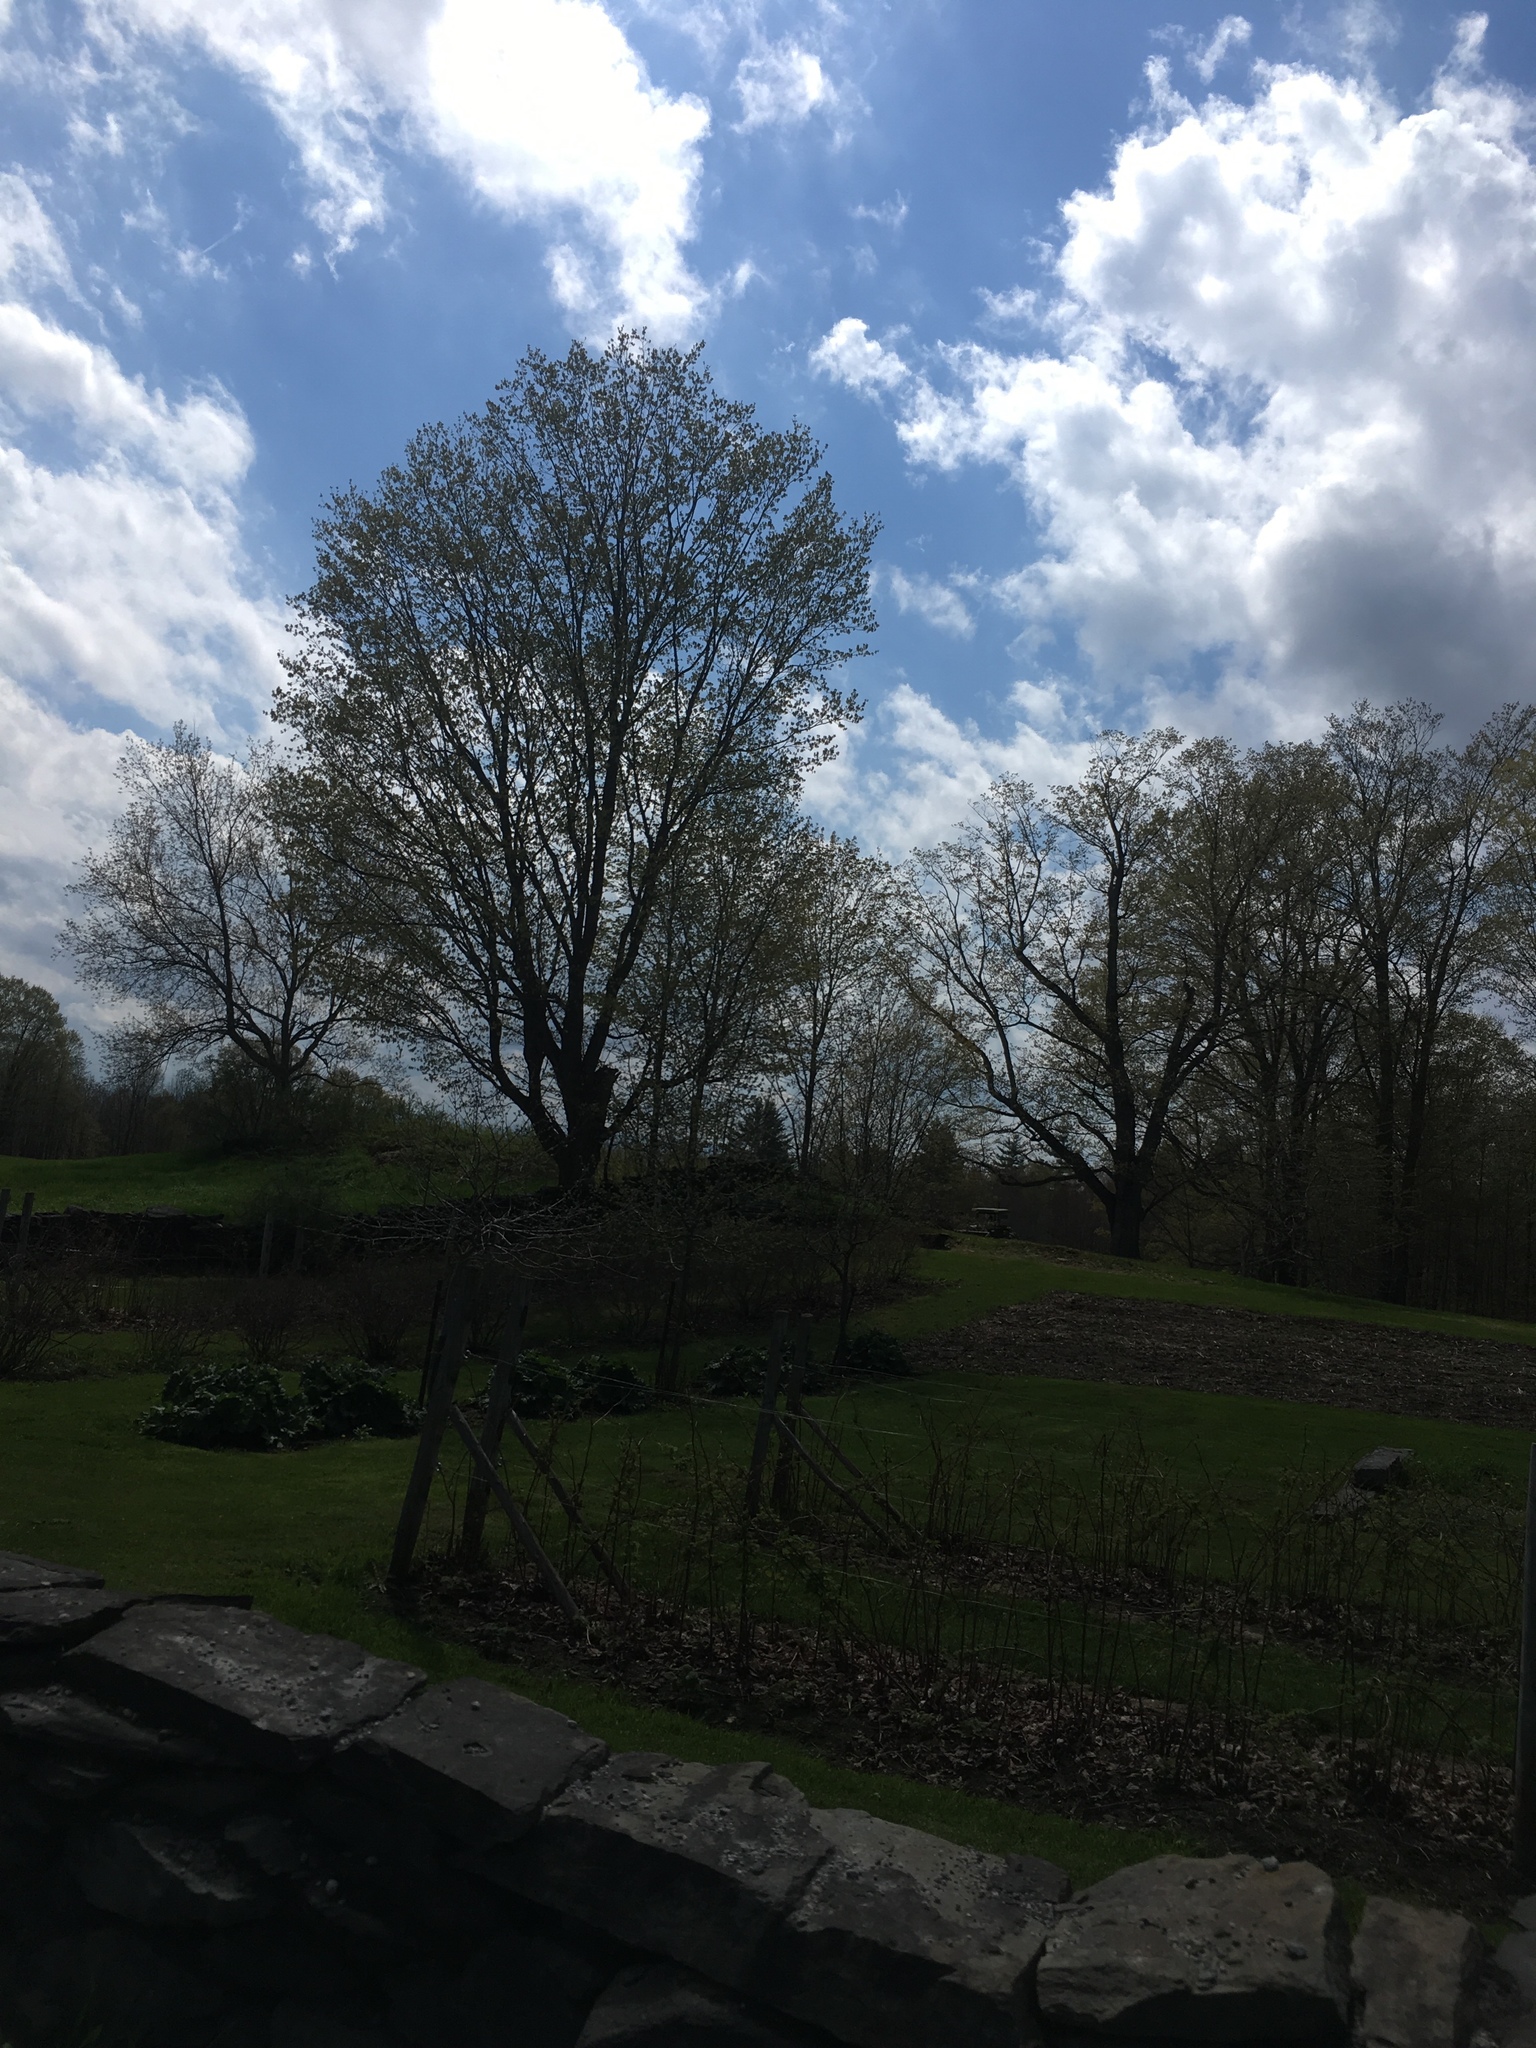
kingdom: Plantae
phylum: Tracheophyta
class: Magnoliopsida
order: Sapindales
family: Sapindaceae
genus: Acer
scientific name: Acer saccharum
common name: Sugar maple
